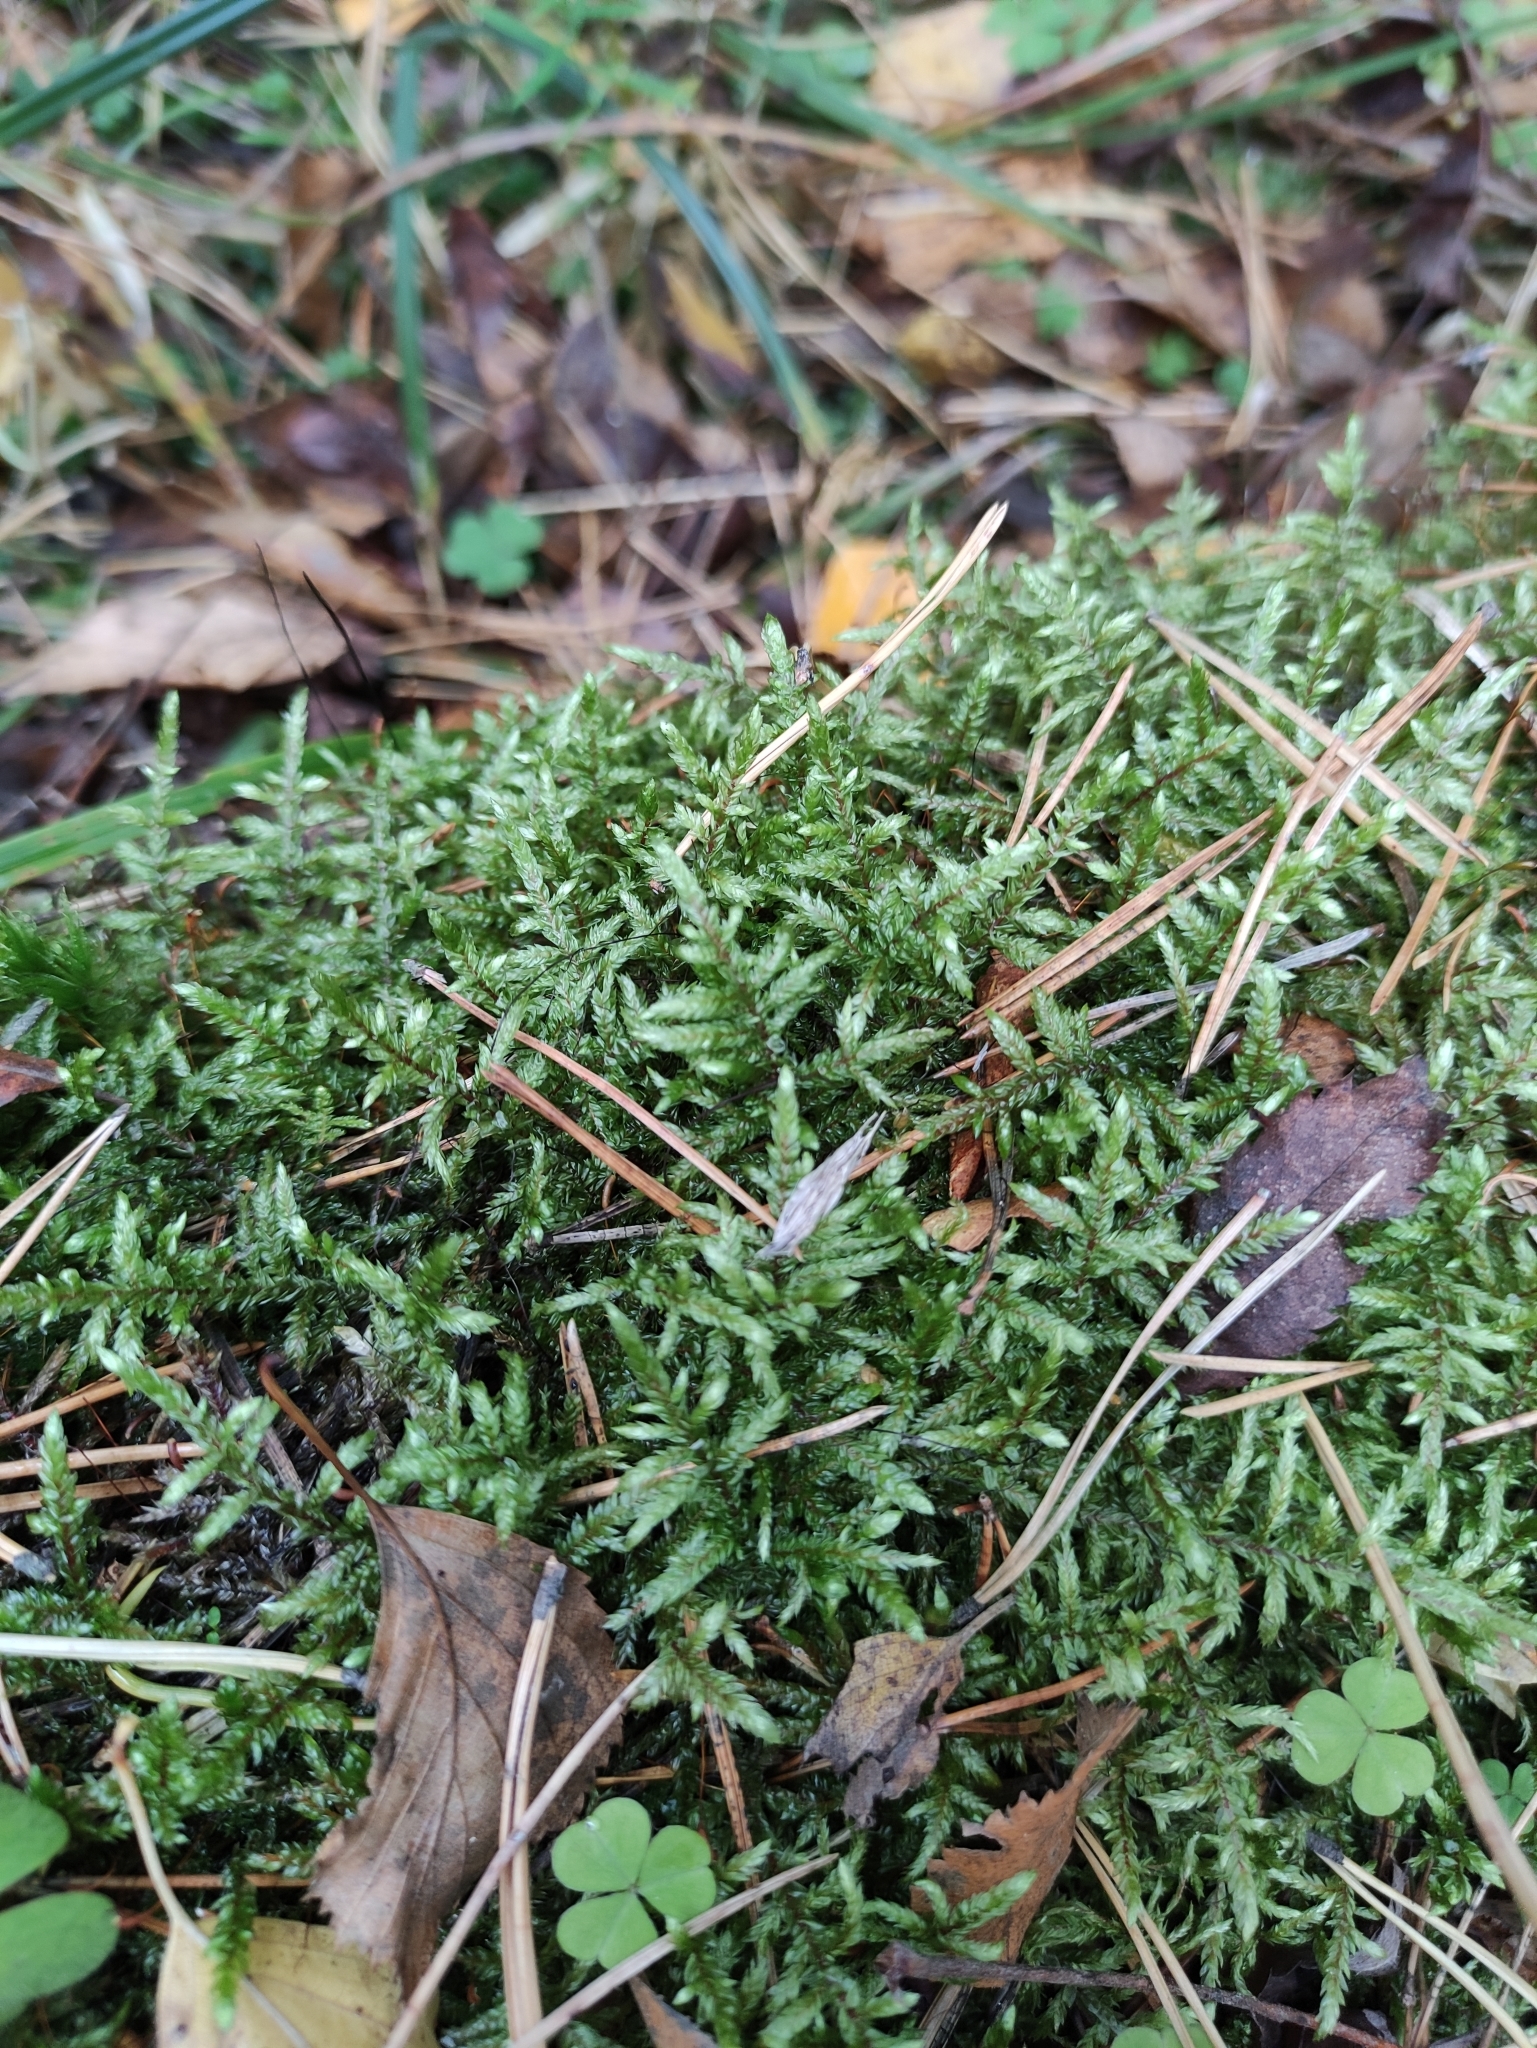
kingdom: Plantae
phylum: Bryophyta
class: Bryopsida
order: Hypnales
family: Hylocomiaceae
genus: Pleurozium
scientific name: Pleurozium schreberi
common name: Red-stemmed feather moss
